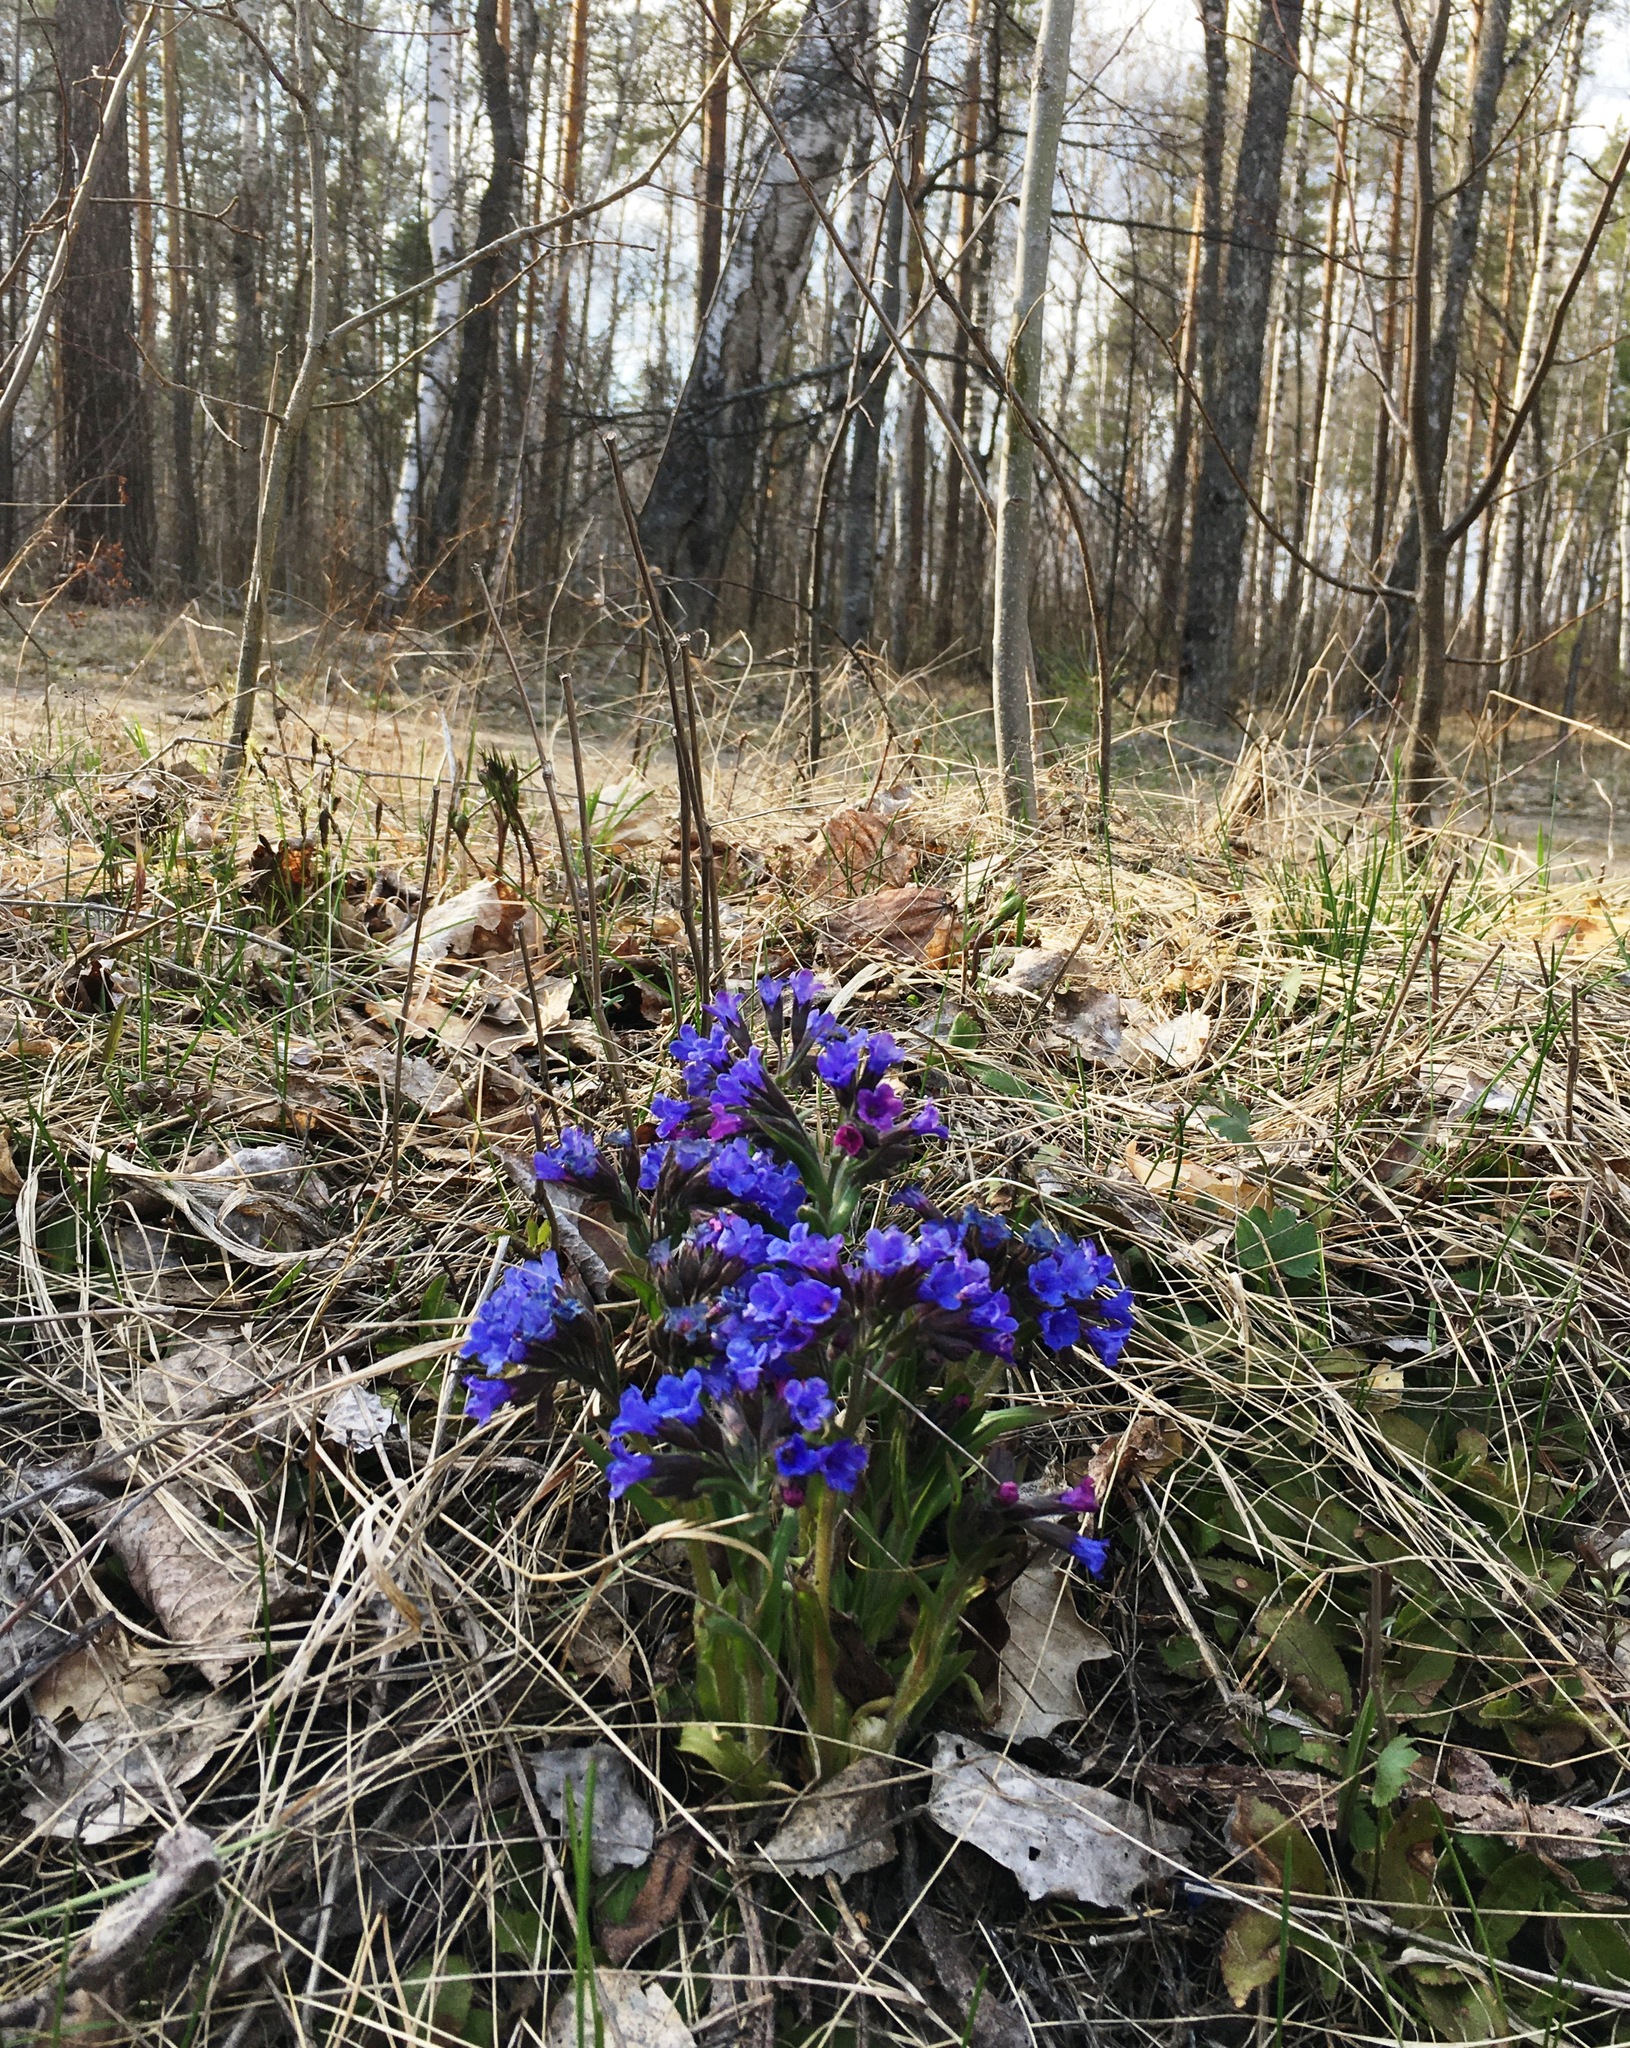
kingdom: Plantae
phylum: Tracheophyta
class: Magnoliopsida
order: Boraginales
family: Boraginaceae
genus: Pulmonaria
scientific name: Pulmonaria angustifolia
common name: Blue cowslip
